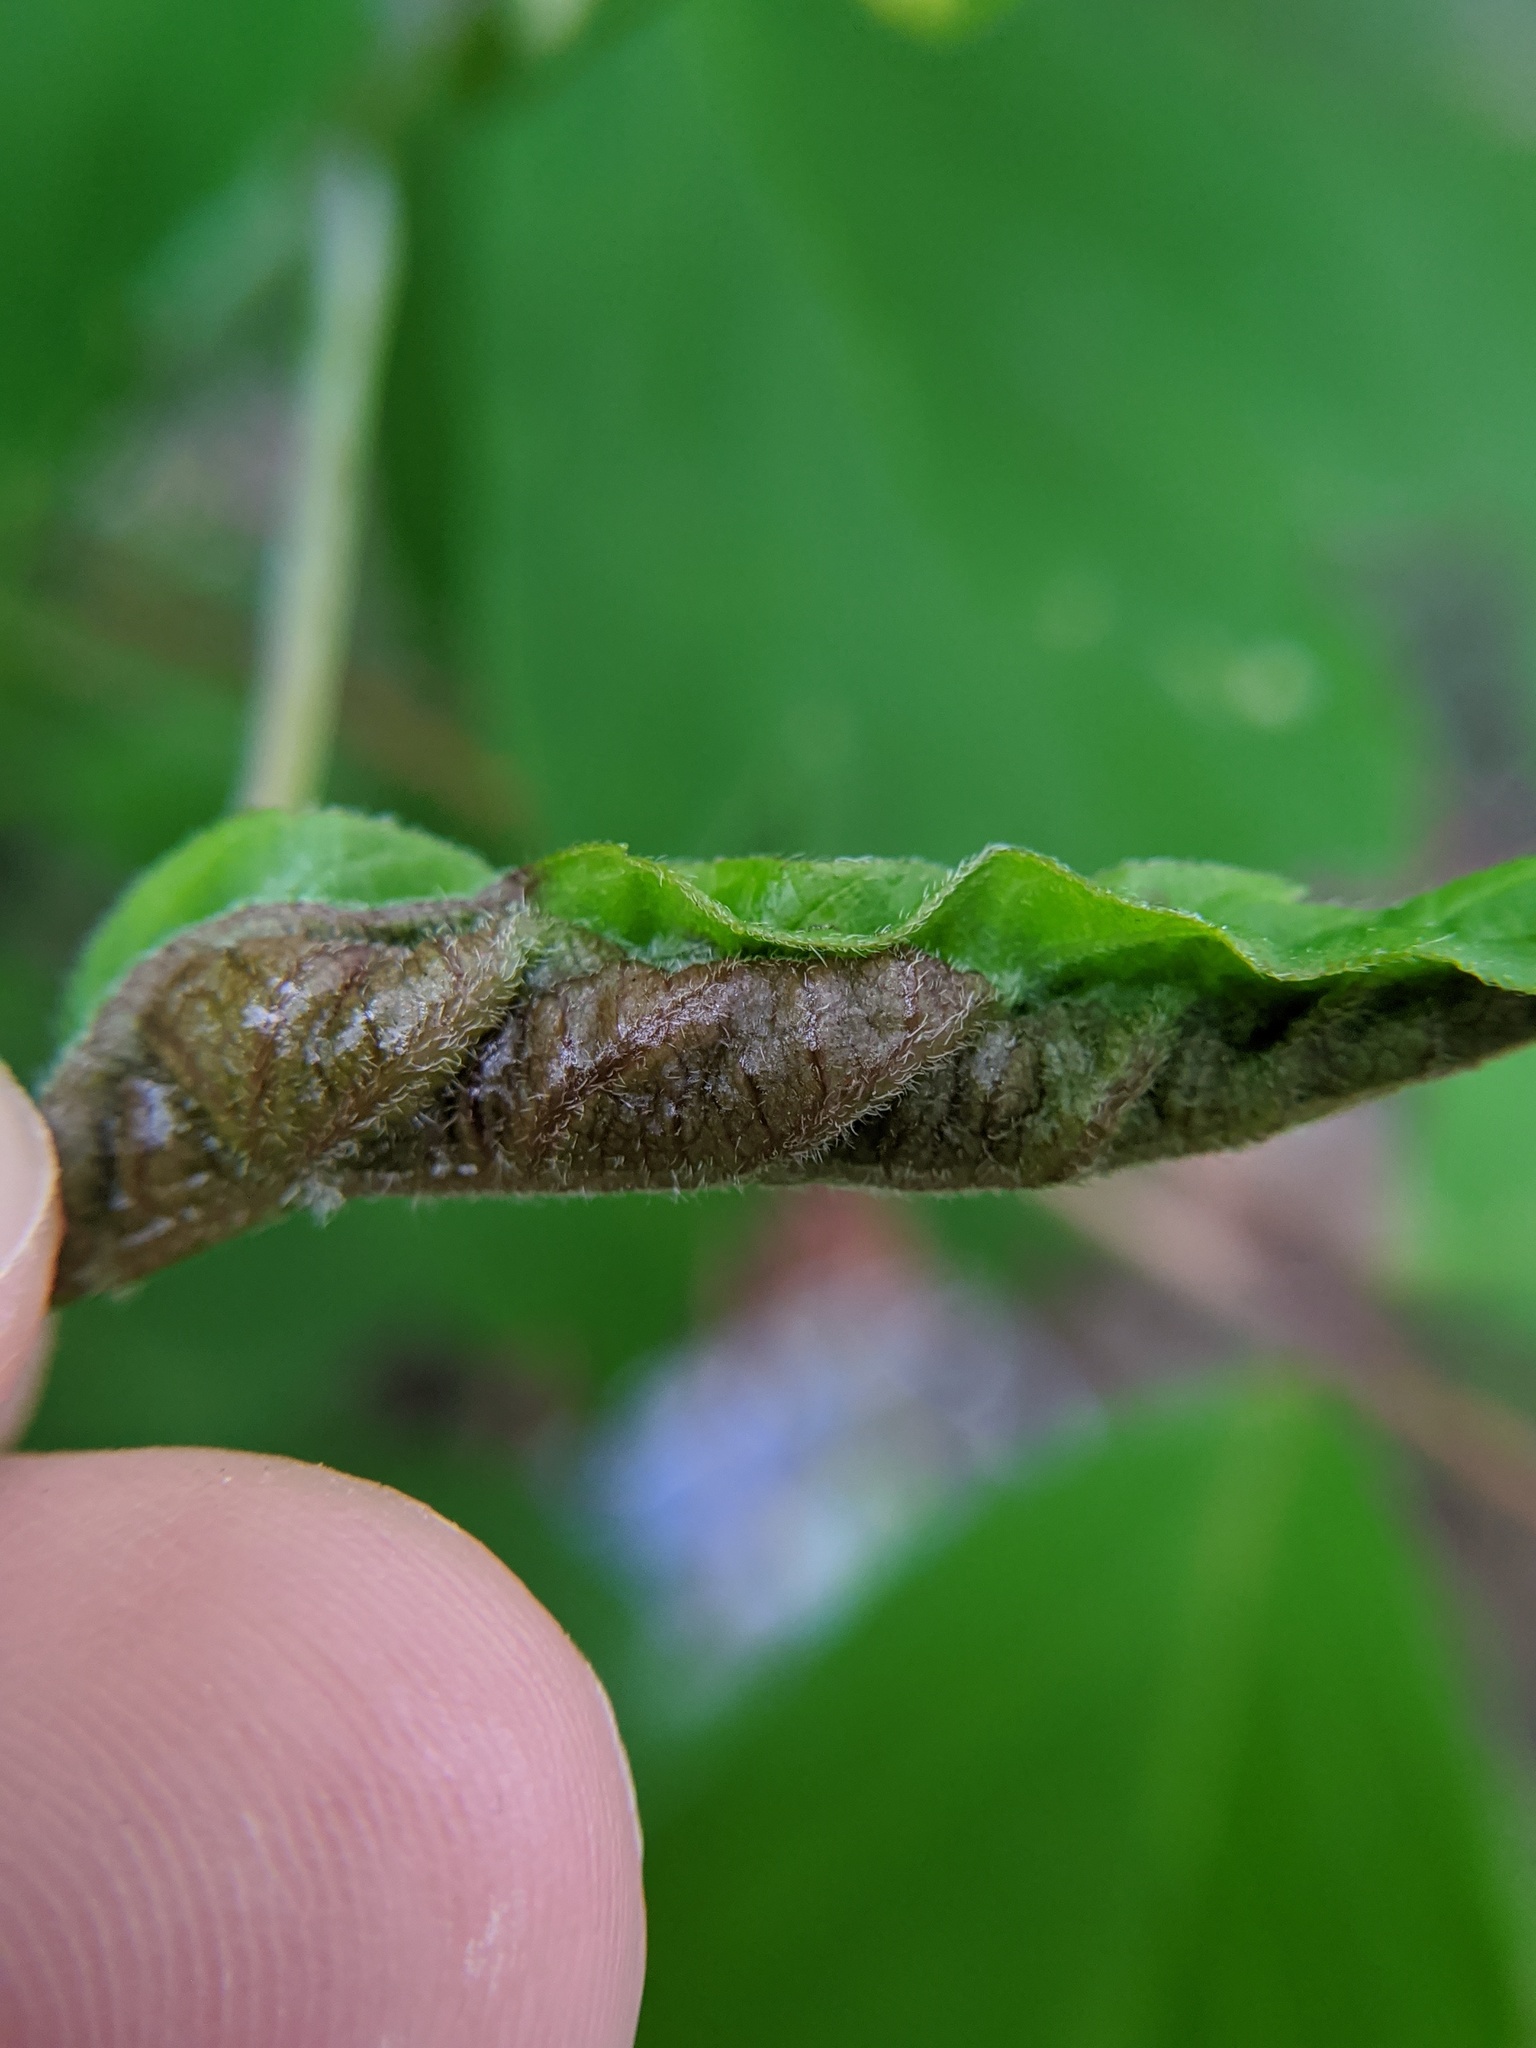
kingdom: Animalia
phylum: Arthropoda
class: Insecta
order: Diptera
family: Cecidomyiidae
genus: Contarinia
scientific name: Contarinia negundinis
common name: Boxelder budgall midge
